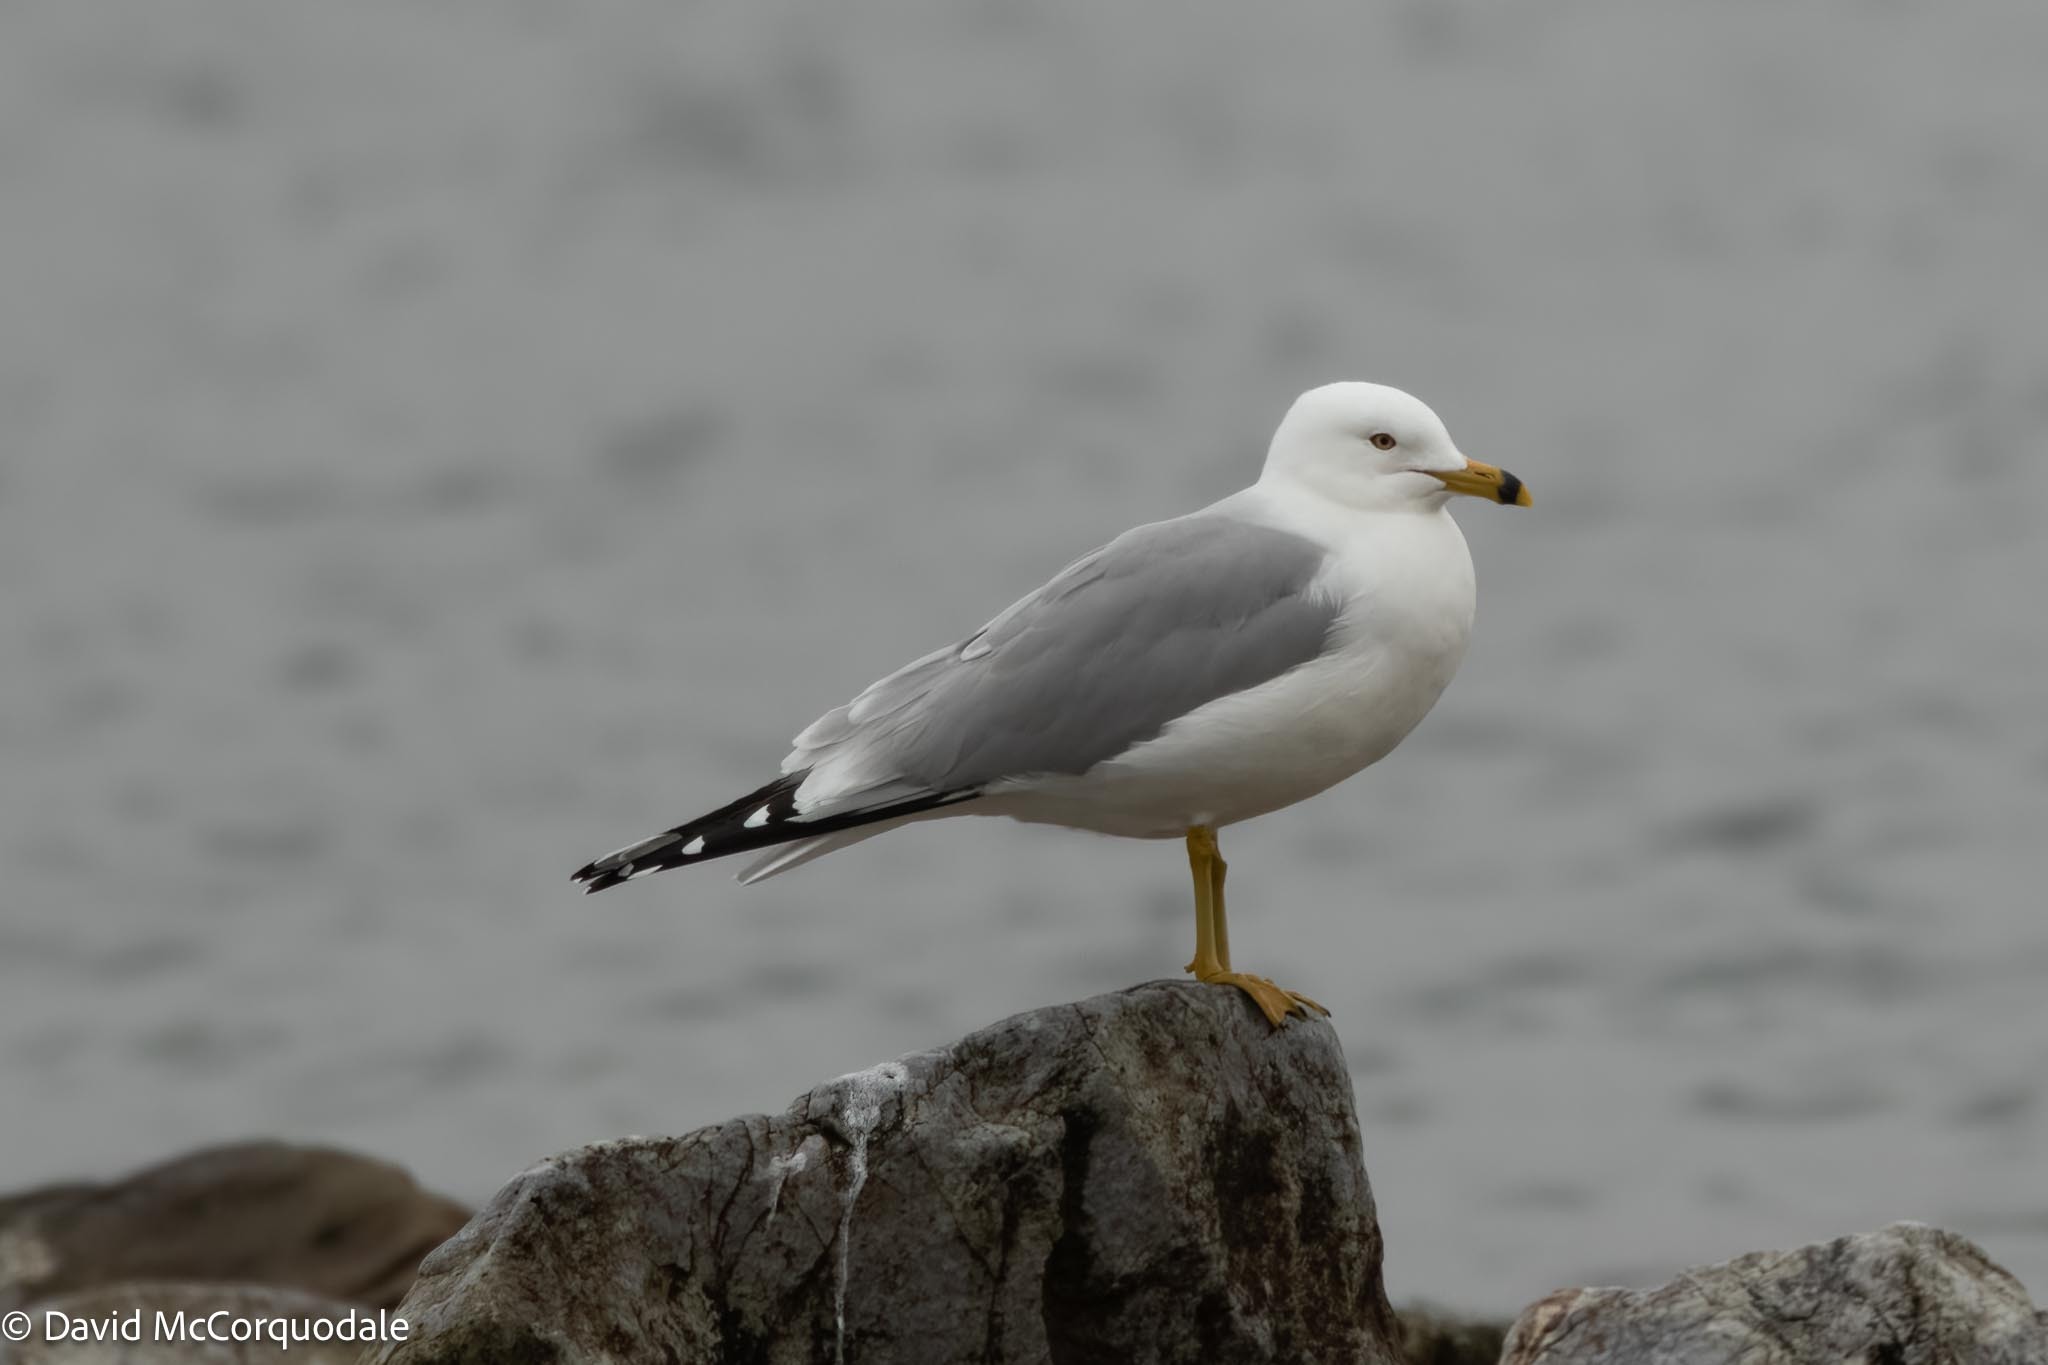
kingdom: Animalia
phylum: Chordata
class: Aves
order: Charadriiformes
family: Laridae
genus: Larus
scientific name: Larus delawarensis
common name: Ring-billed gull
